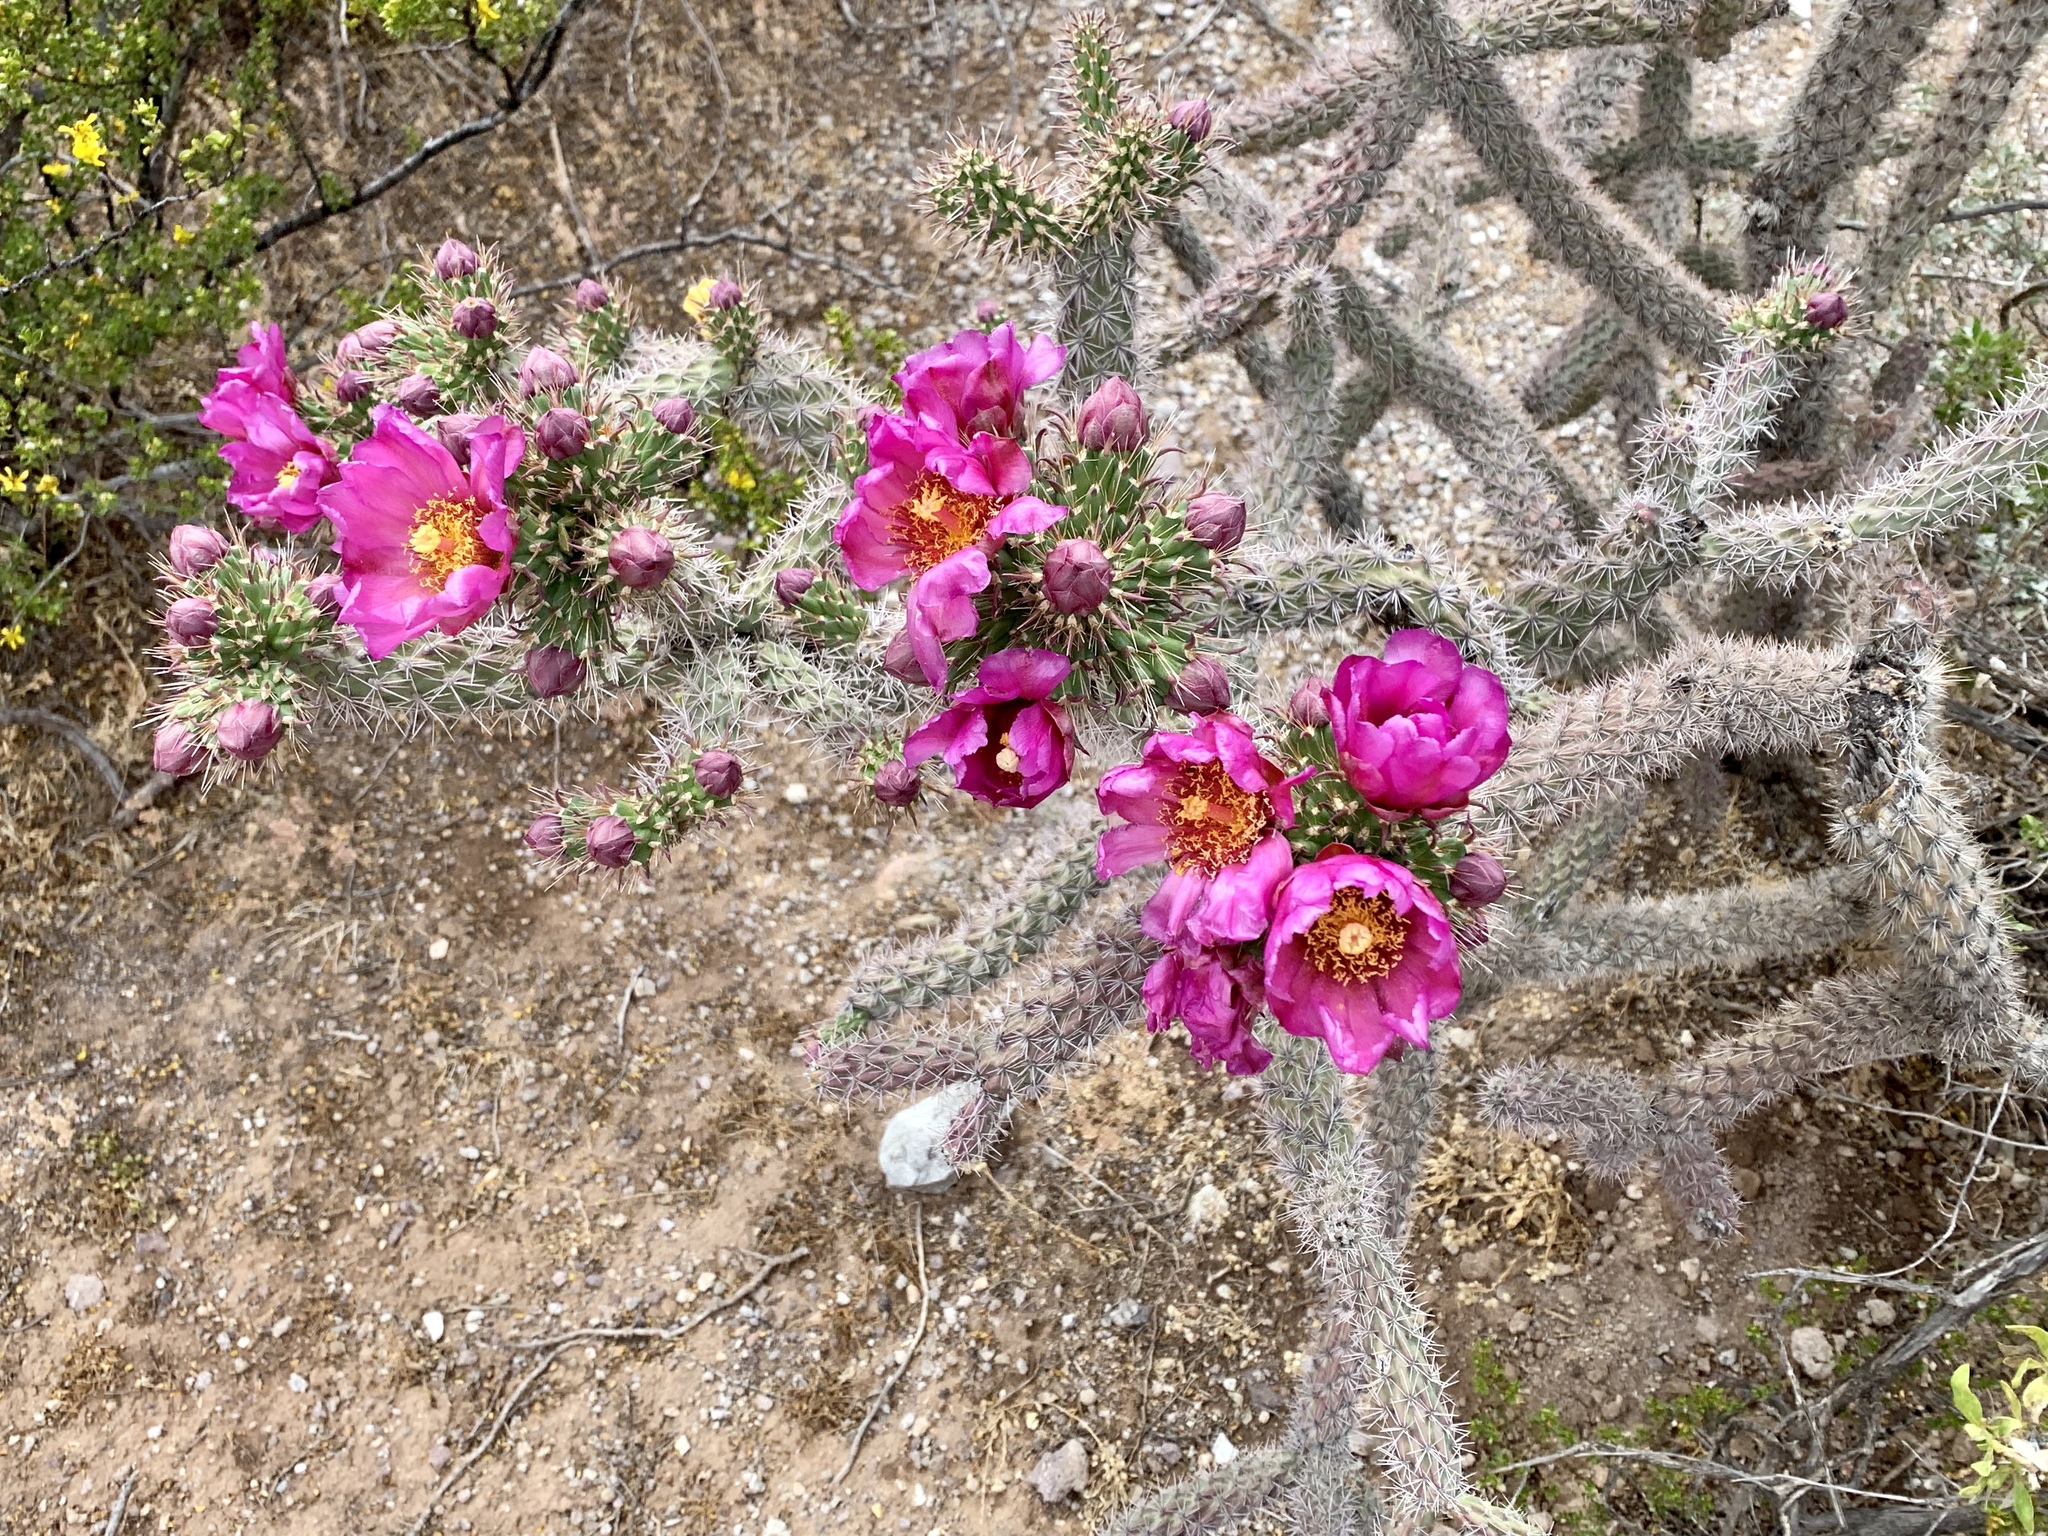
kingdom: Plantae
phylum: Tracheophyta
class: Magnoliopsida
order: Caryophyllales
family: Cactaceae
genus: Cylindropuntia
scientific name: Cylindropuntia imbricata
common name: Candelabrum cactus
